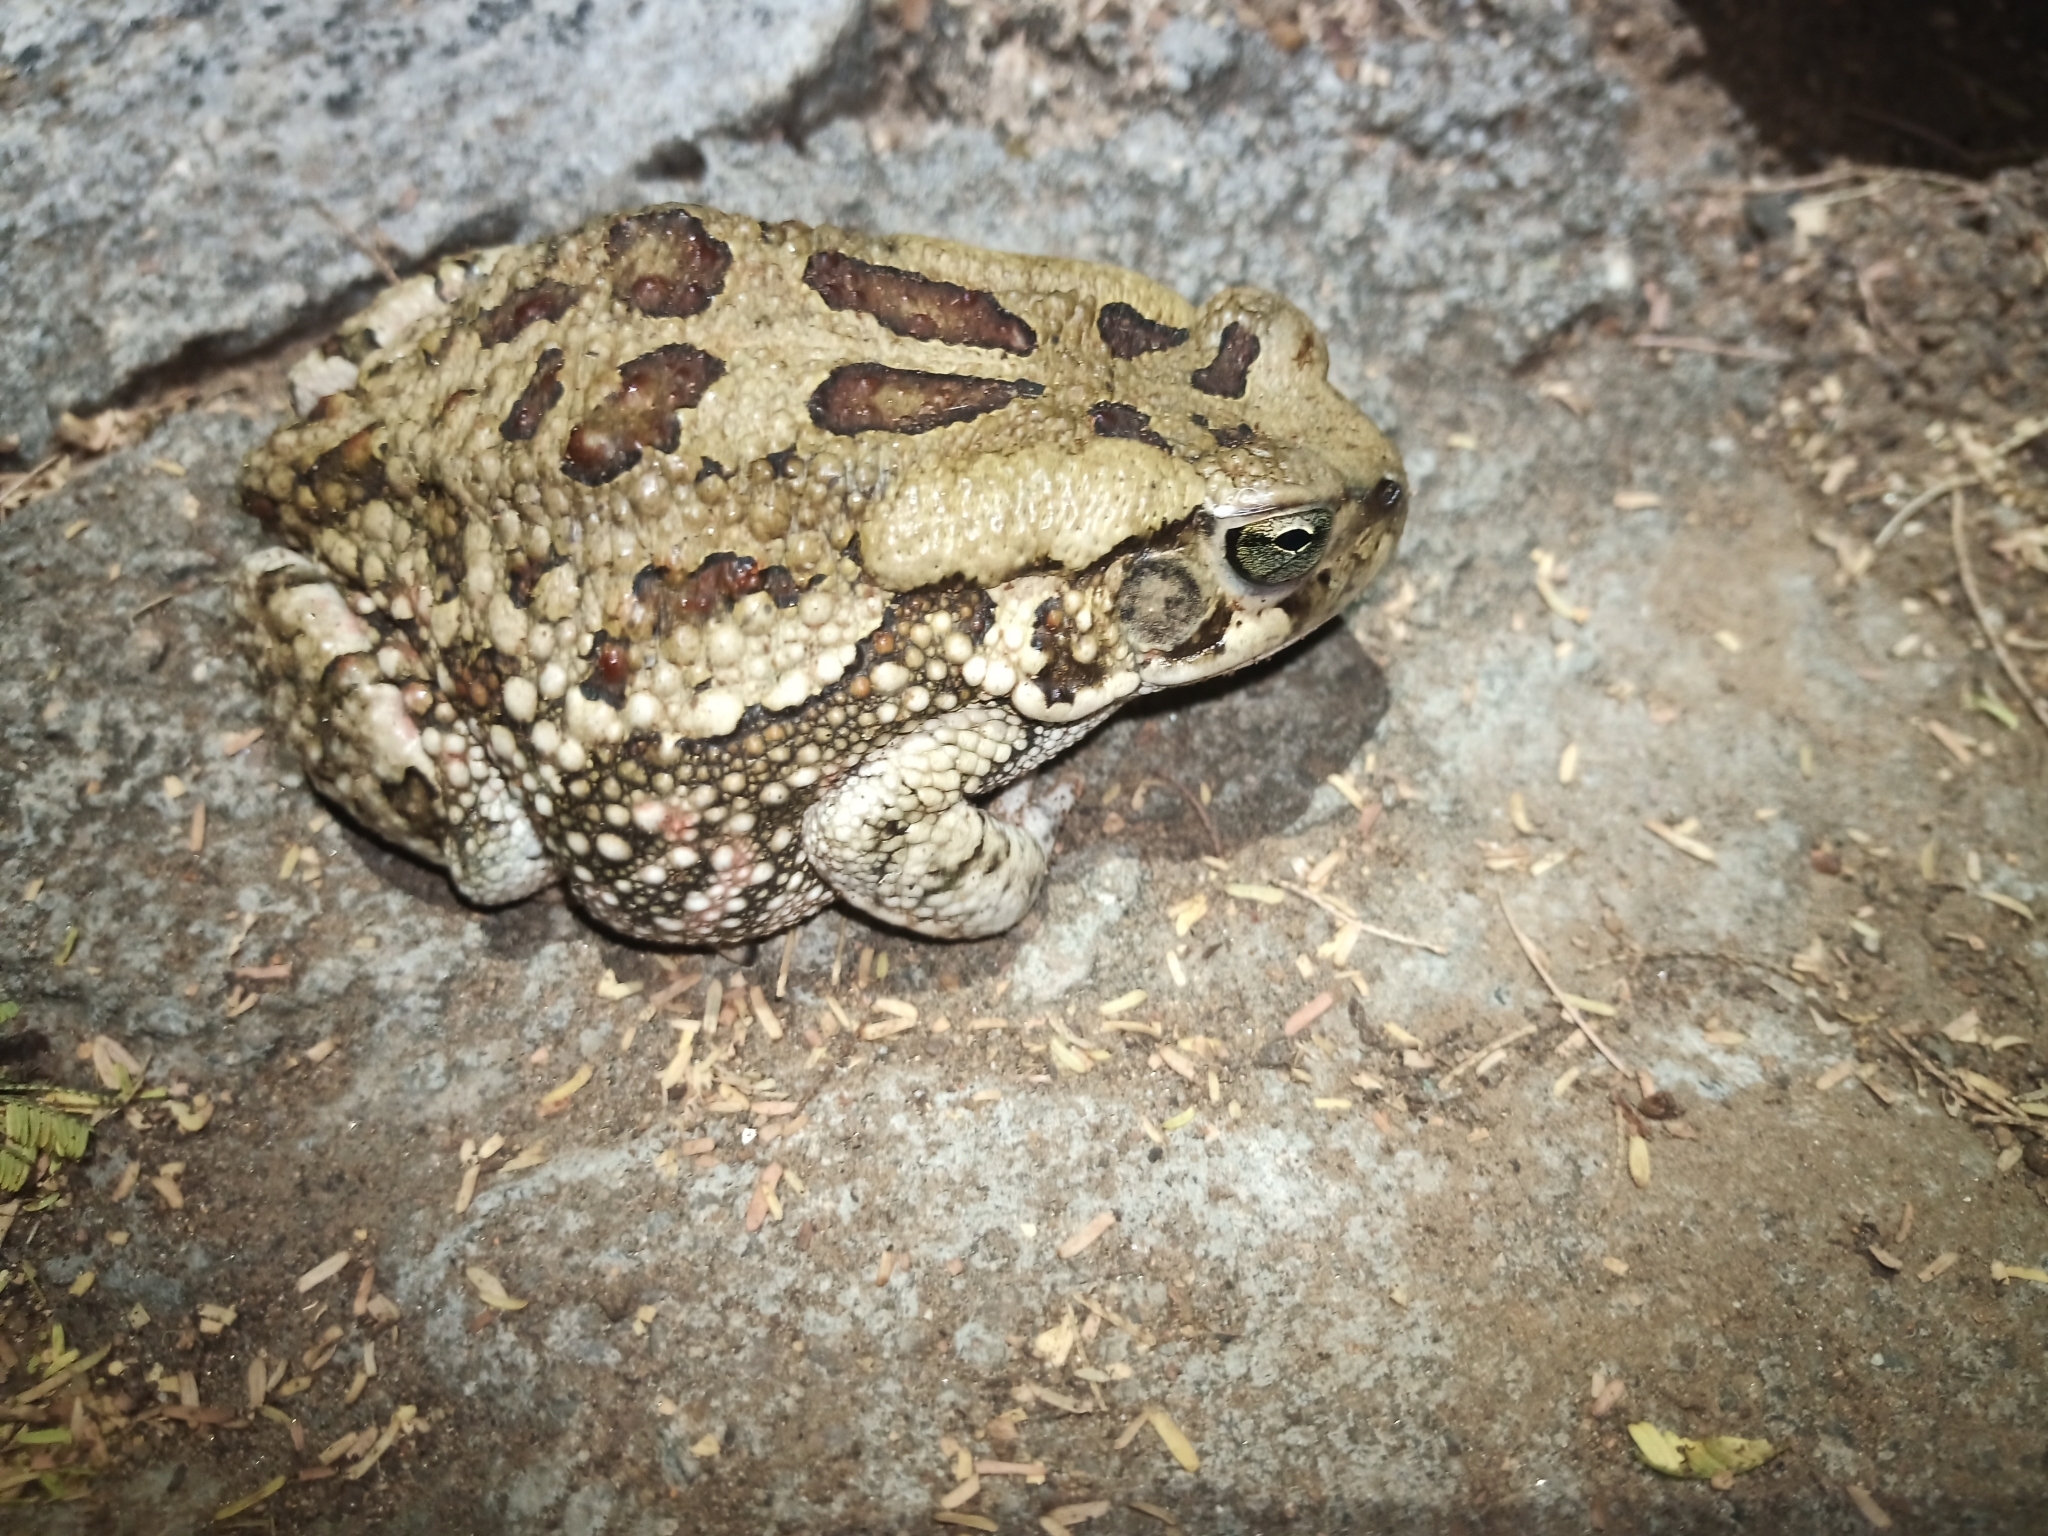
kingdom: Animalia
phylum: Chordata
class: Amphibia
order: Anura
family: Bufonidae
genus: Sclerophrys
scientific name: Sclerophrys garmani
